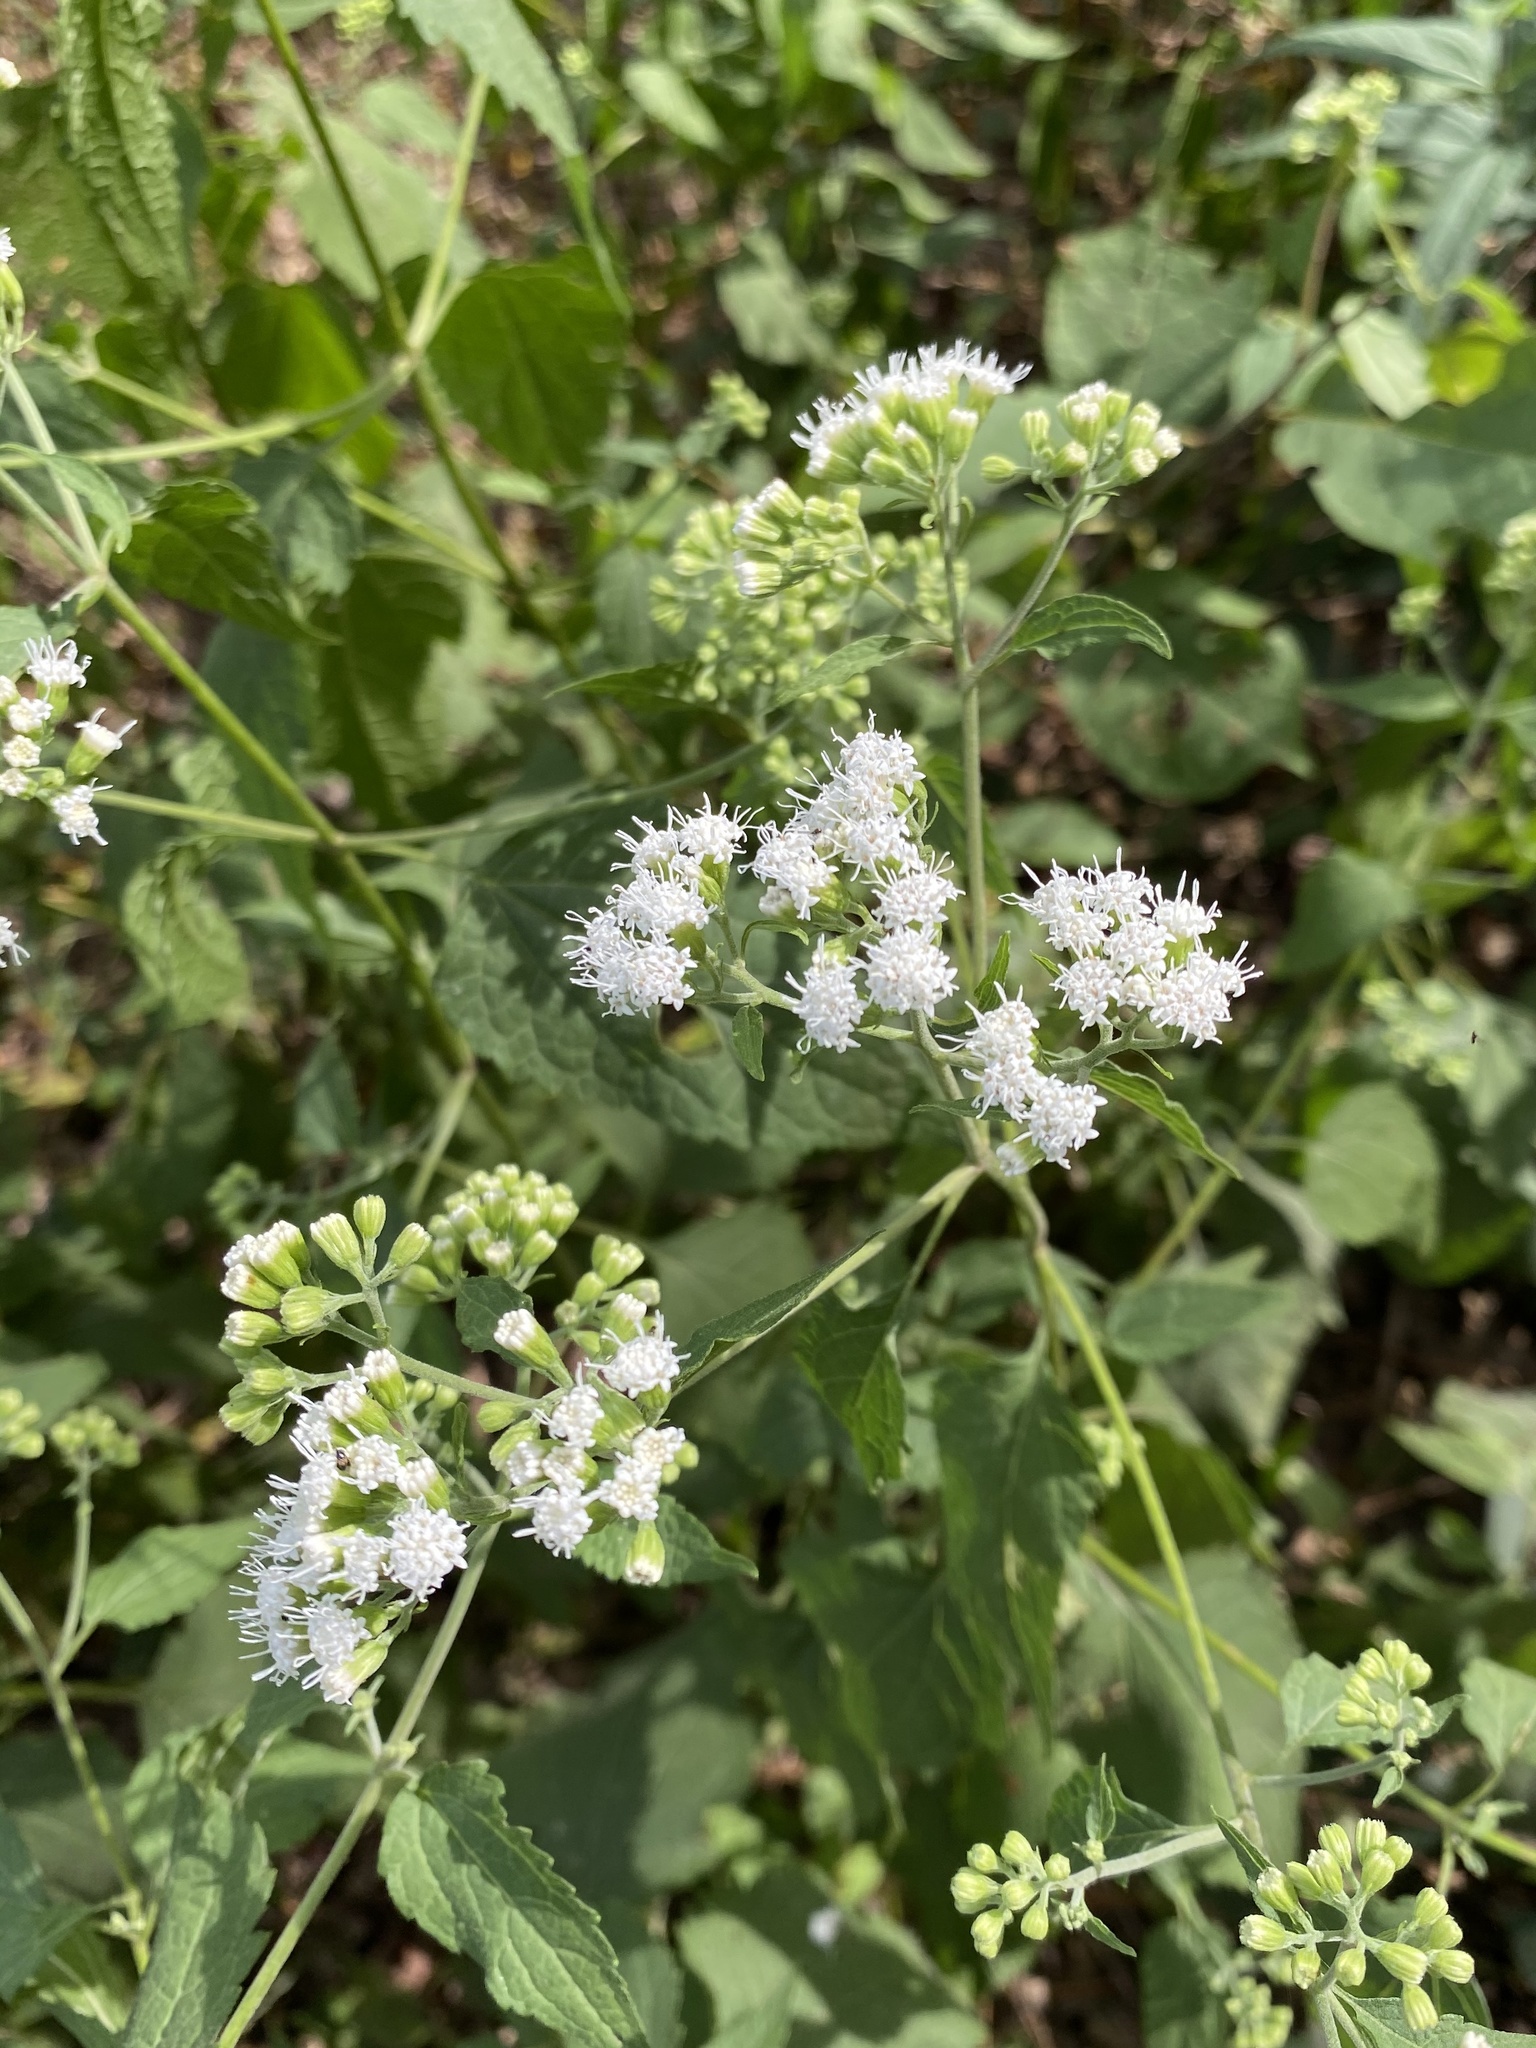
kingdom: Plantae
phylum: Tracheophyta
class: Magnoliopsida
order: Asterales
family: Asteraceae
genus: Ageratina
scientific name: Ageratina altissima
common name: White snakeroot
